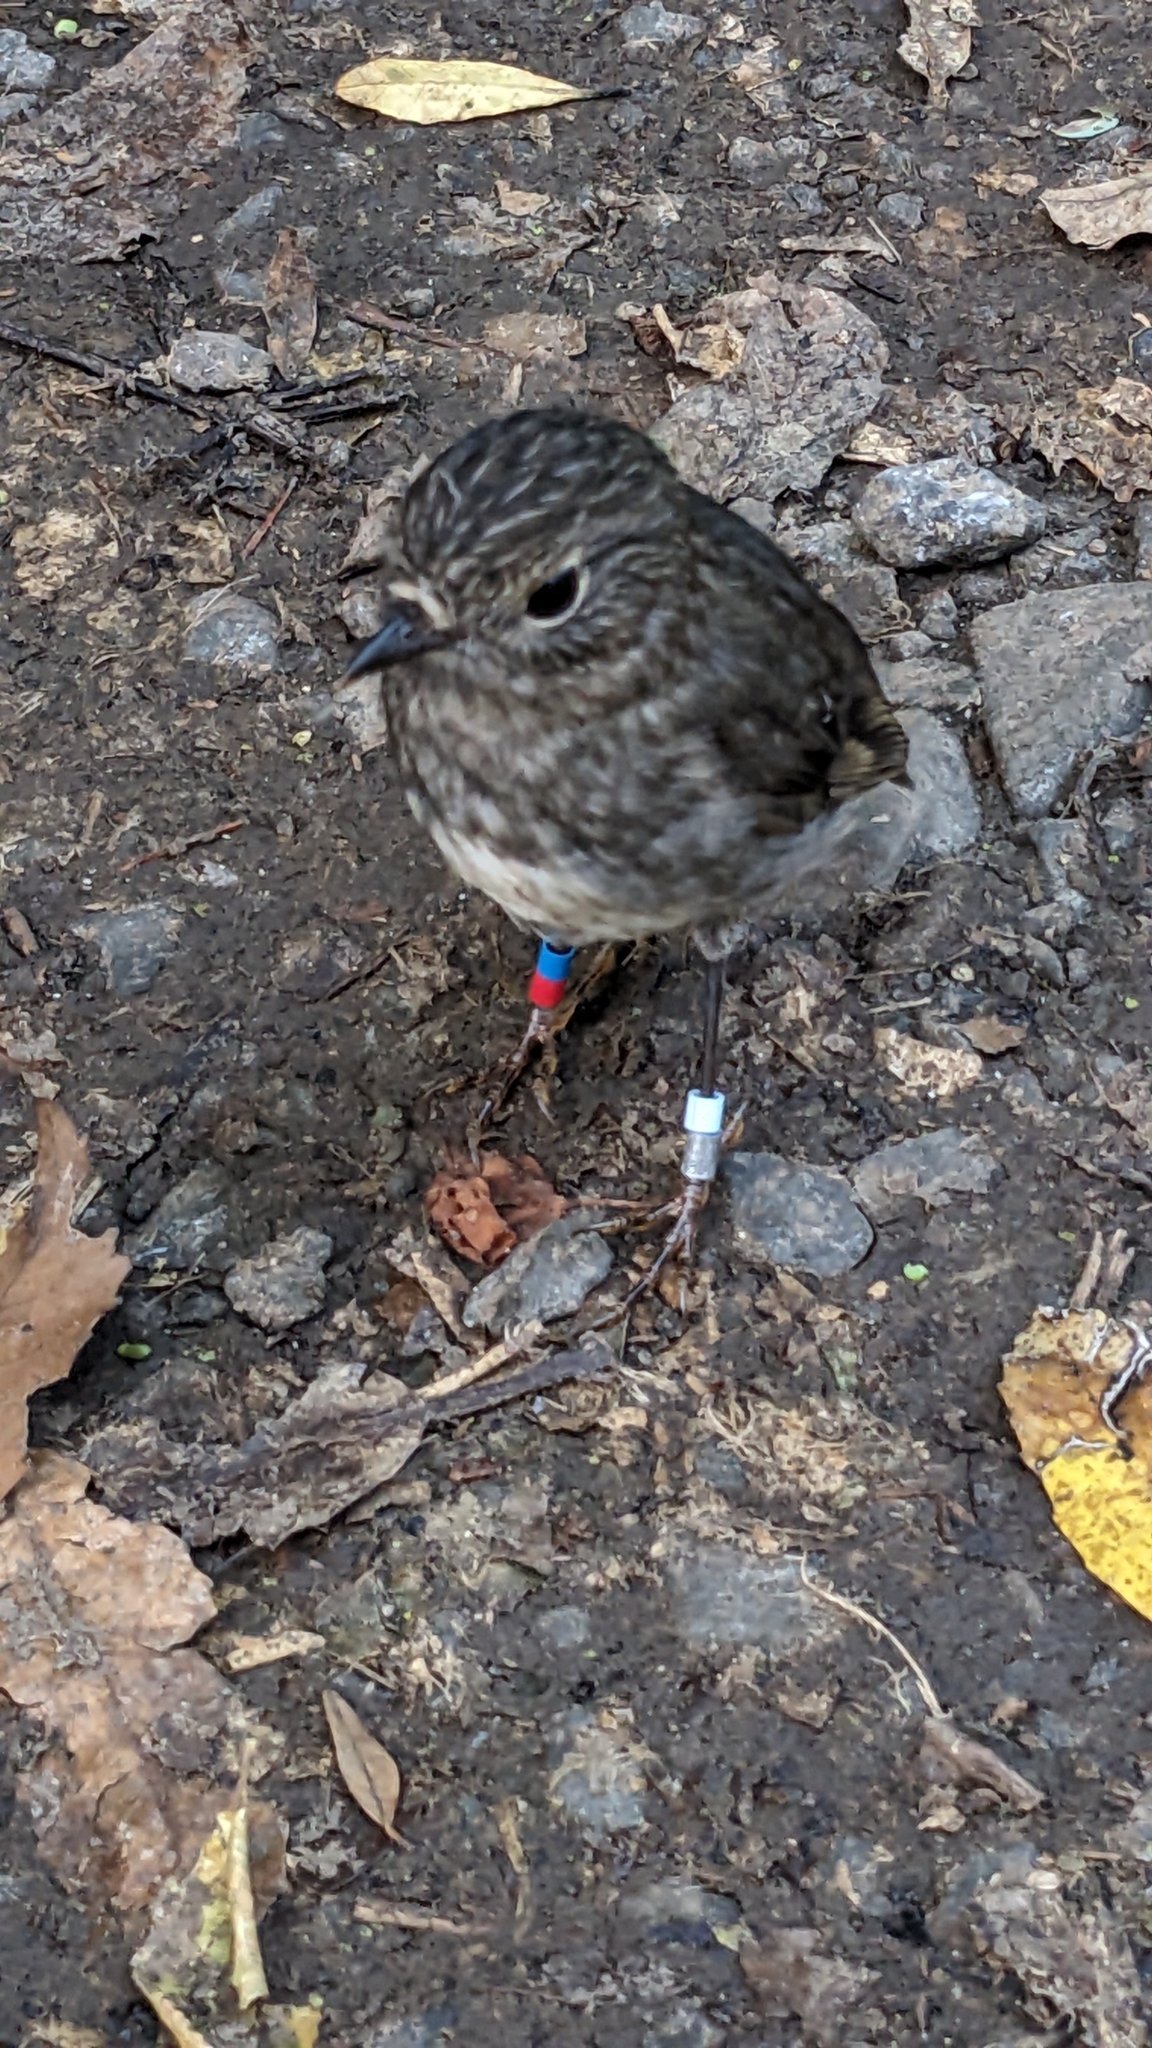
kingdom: Animalia
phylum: Chordata
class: Aves
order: Passeriformes
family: Petroicidae
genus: Petroica
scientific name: Petroica australis
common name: New zealand robin
